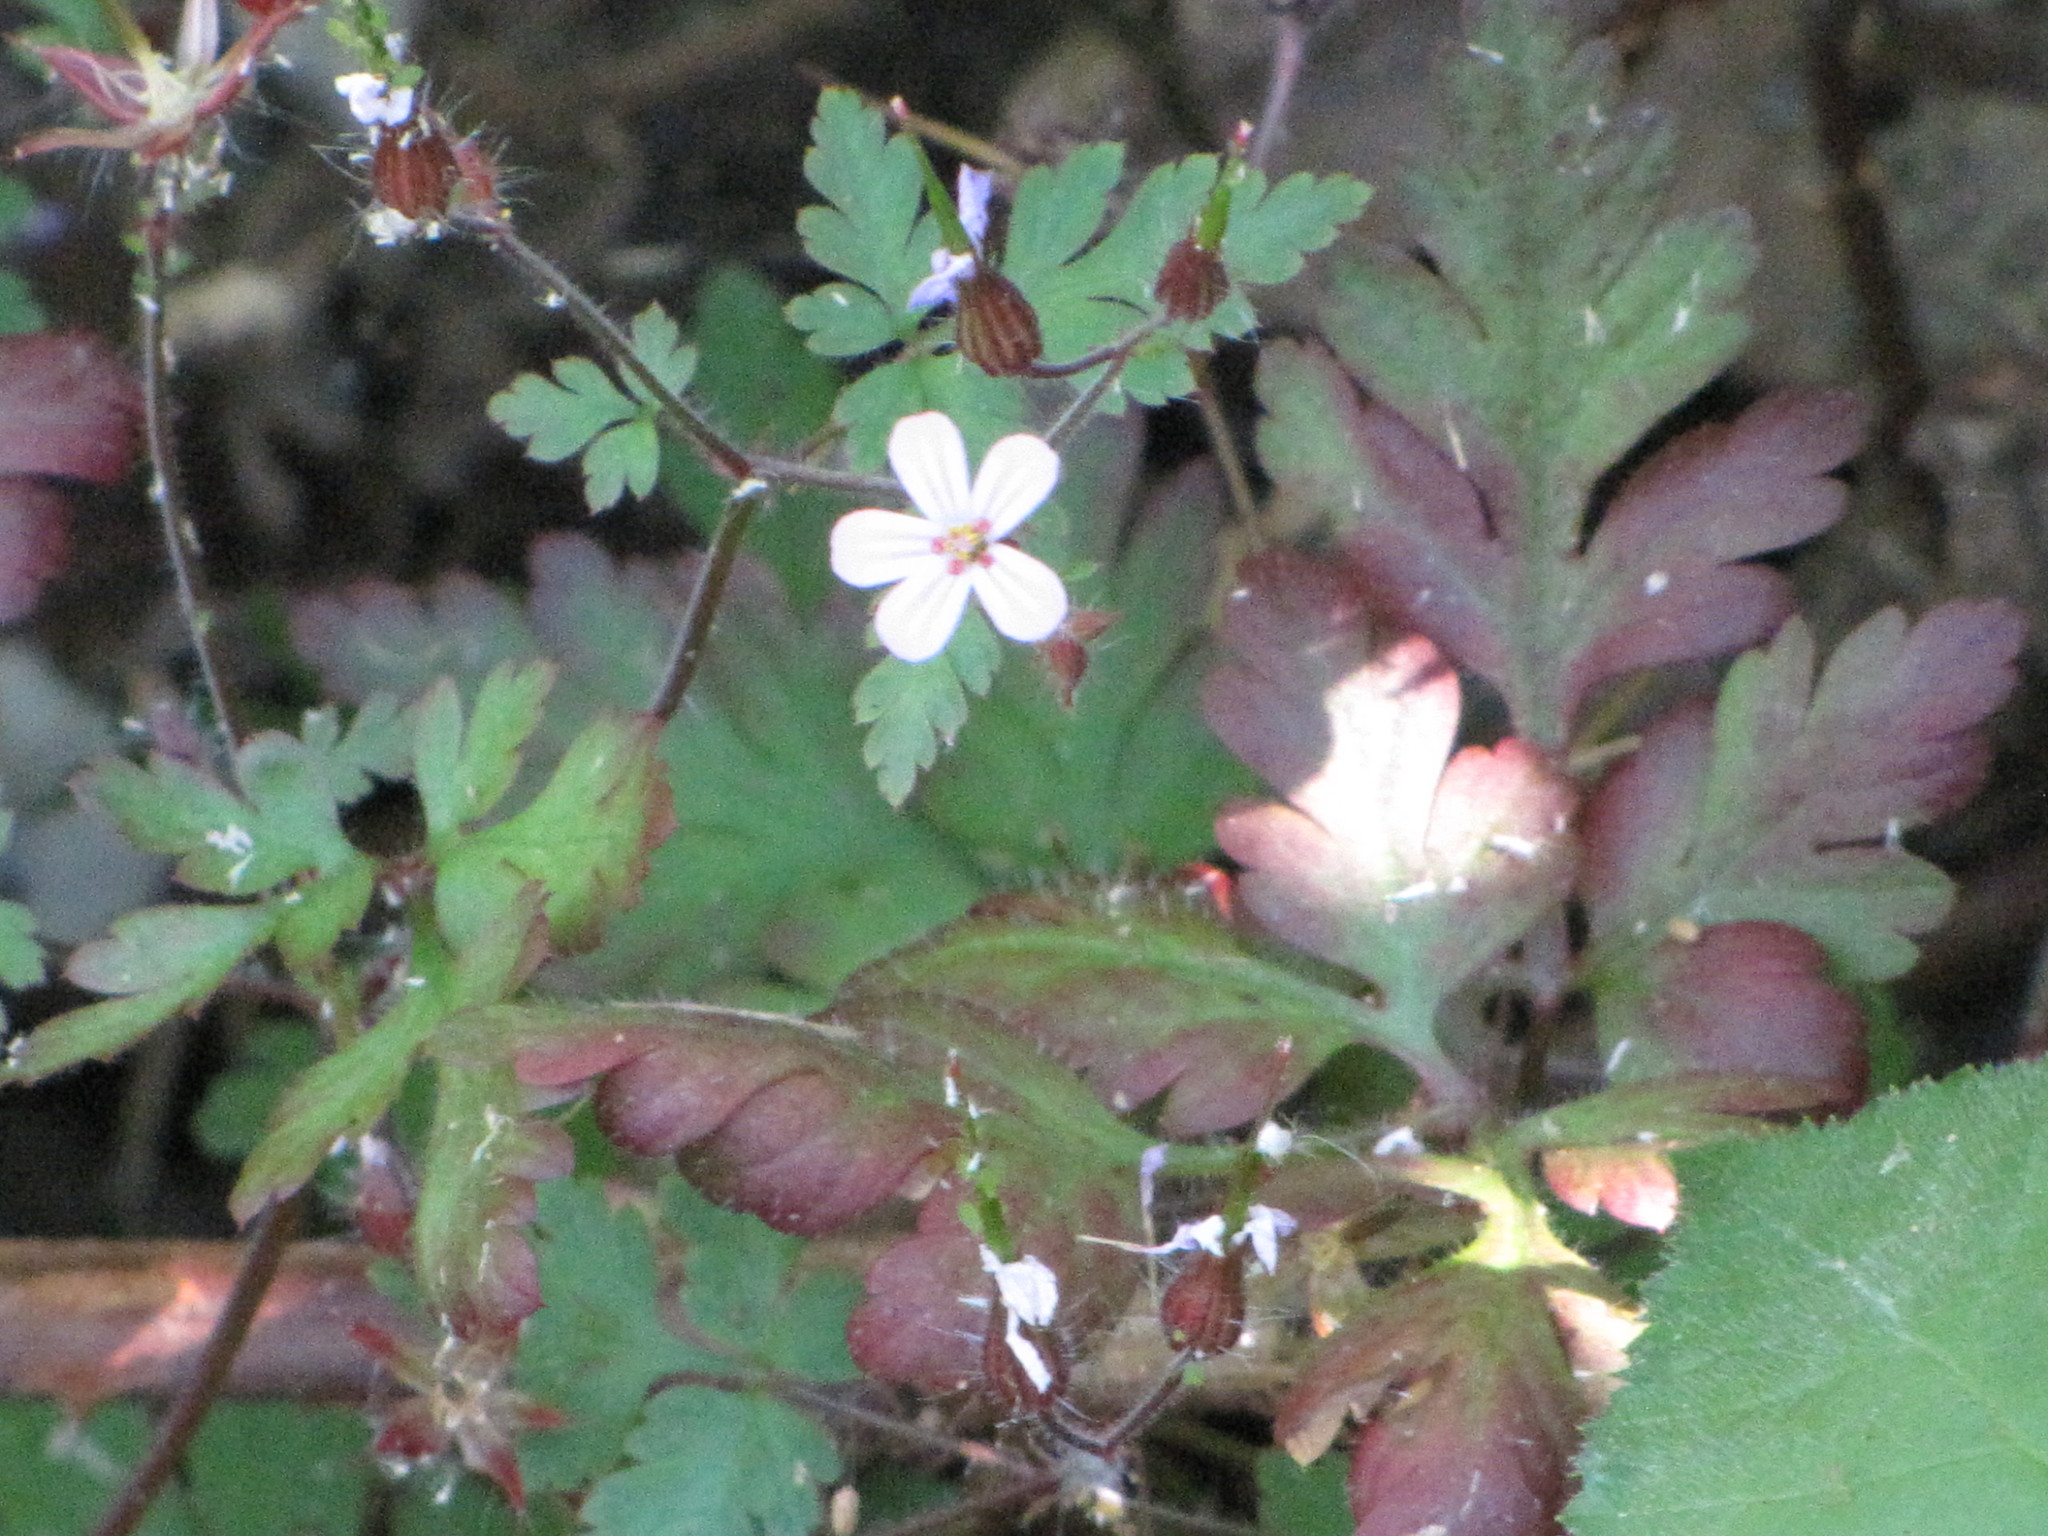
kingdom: Plantae
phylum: Tracheophyta
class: Magnoliopsida
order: Geraniales
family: Geraniaceae
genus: Geranium
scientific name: Geranium robertianum
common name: Herb-robert
